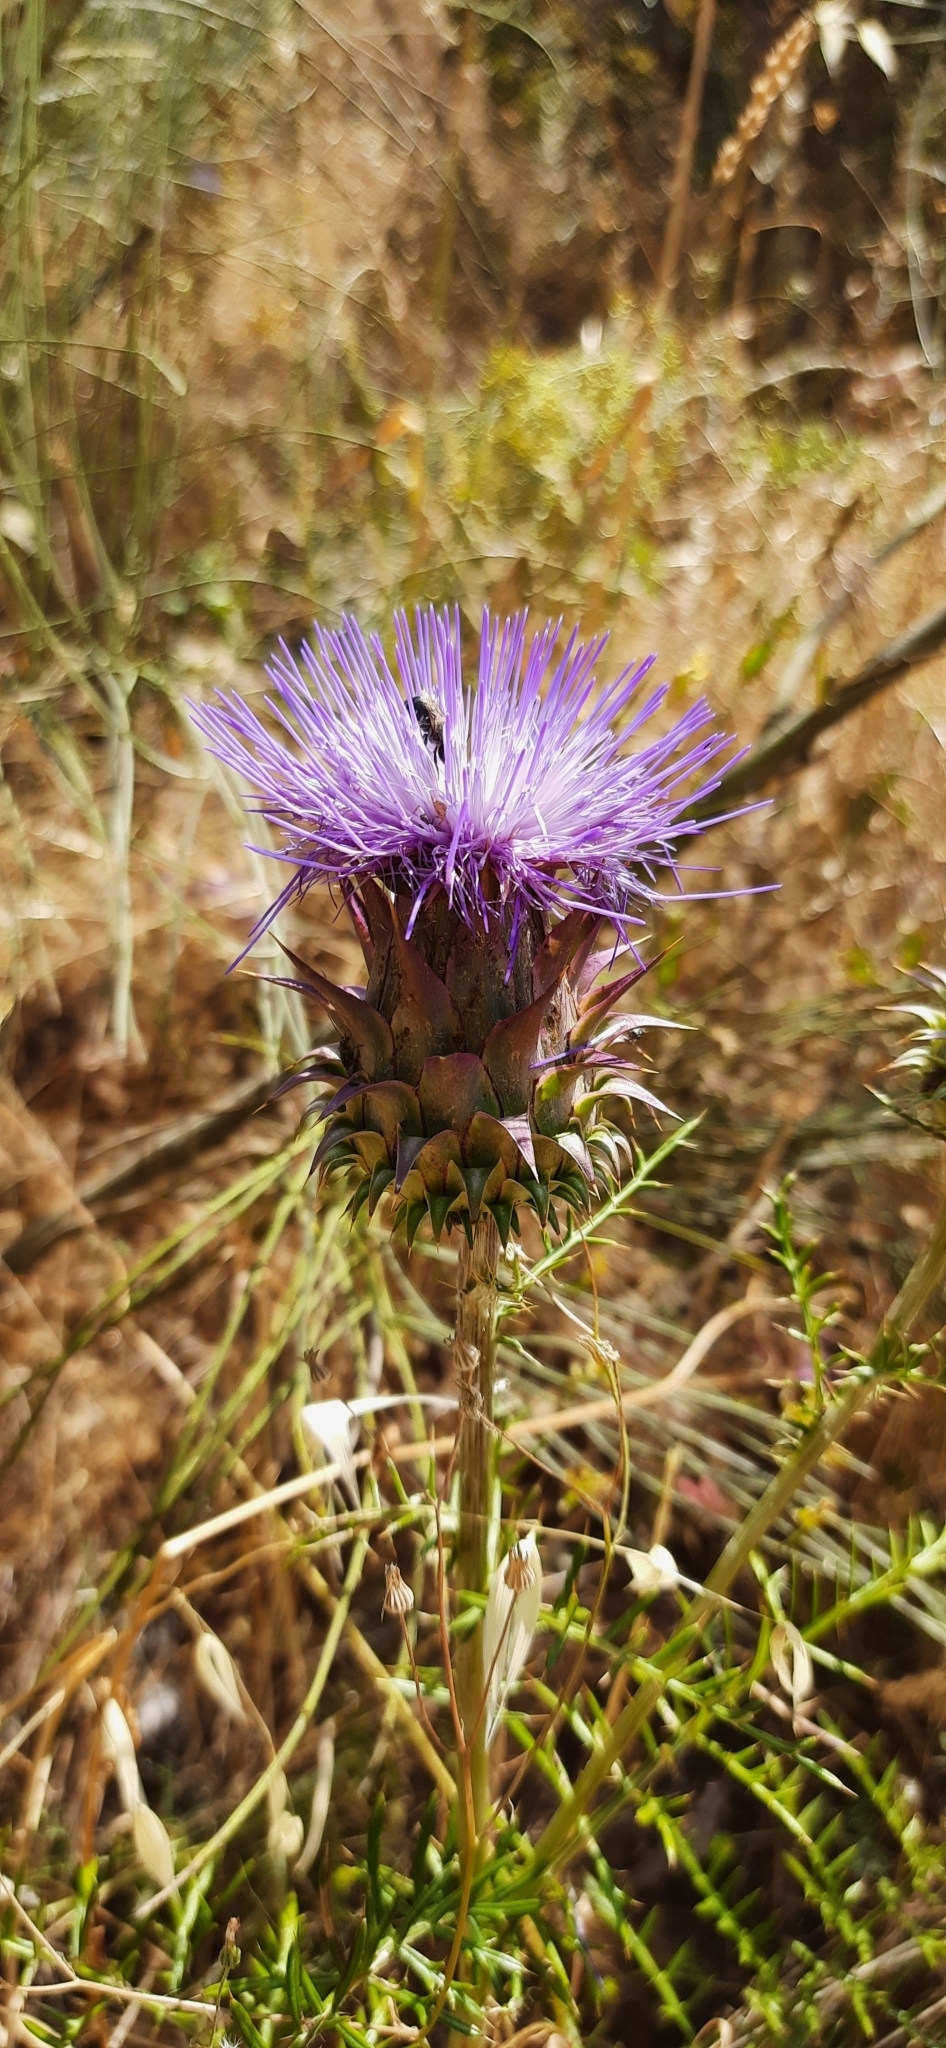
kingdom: Plantae
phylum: Tracheophyta
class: Magnoliopsida
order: Asterales
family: Asteraceae
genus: Cynara
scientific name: Cynara humilis
